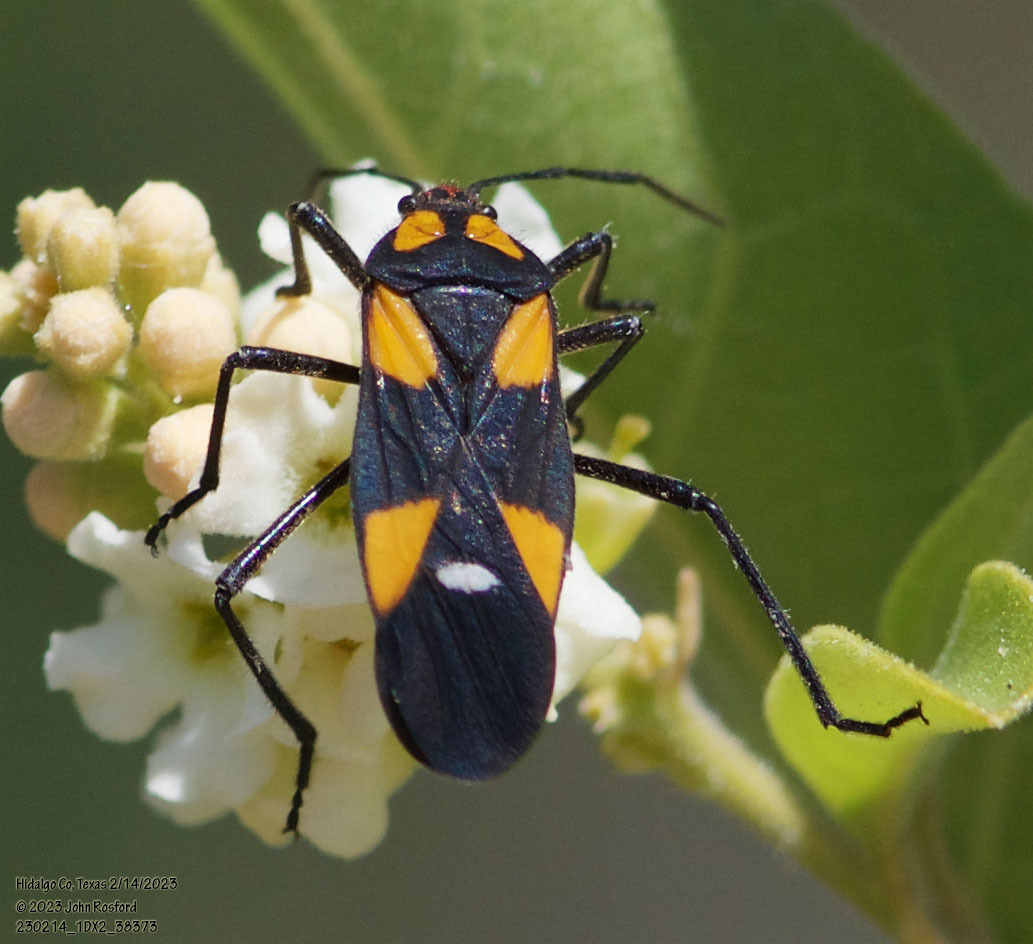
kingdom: Animalia
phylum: Arthropoda
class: Insecta
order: Hemiptera
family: Lygaeidae
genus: Oncopeltus
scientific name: Oncopeltus sexmaculatus
